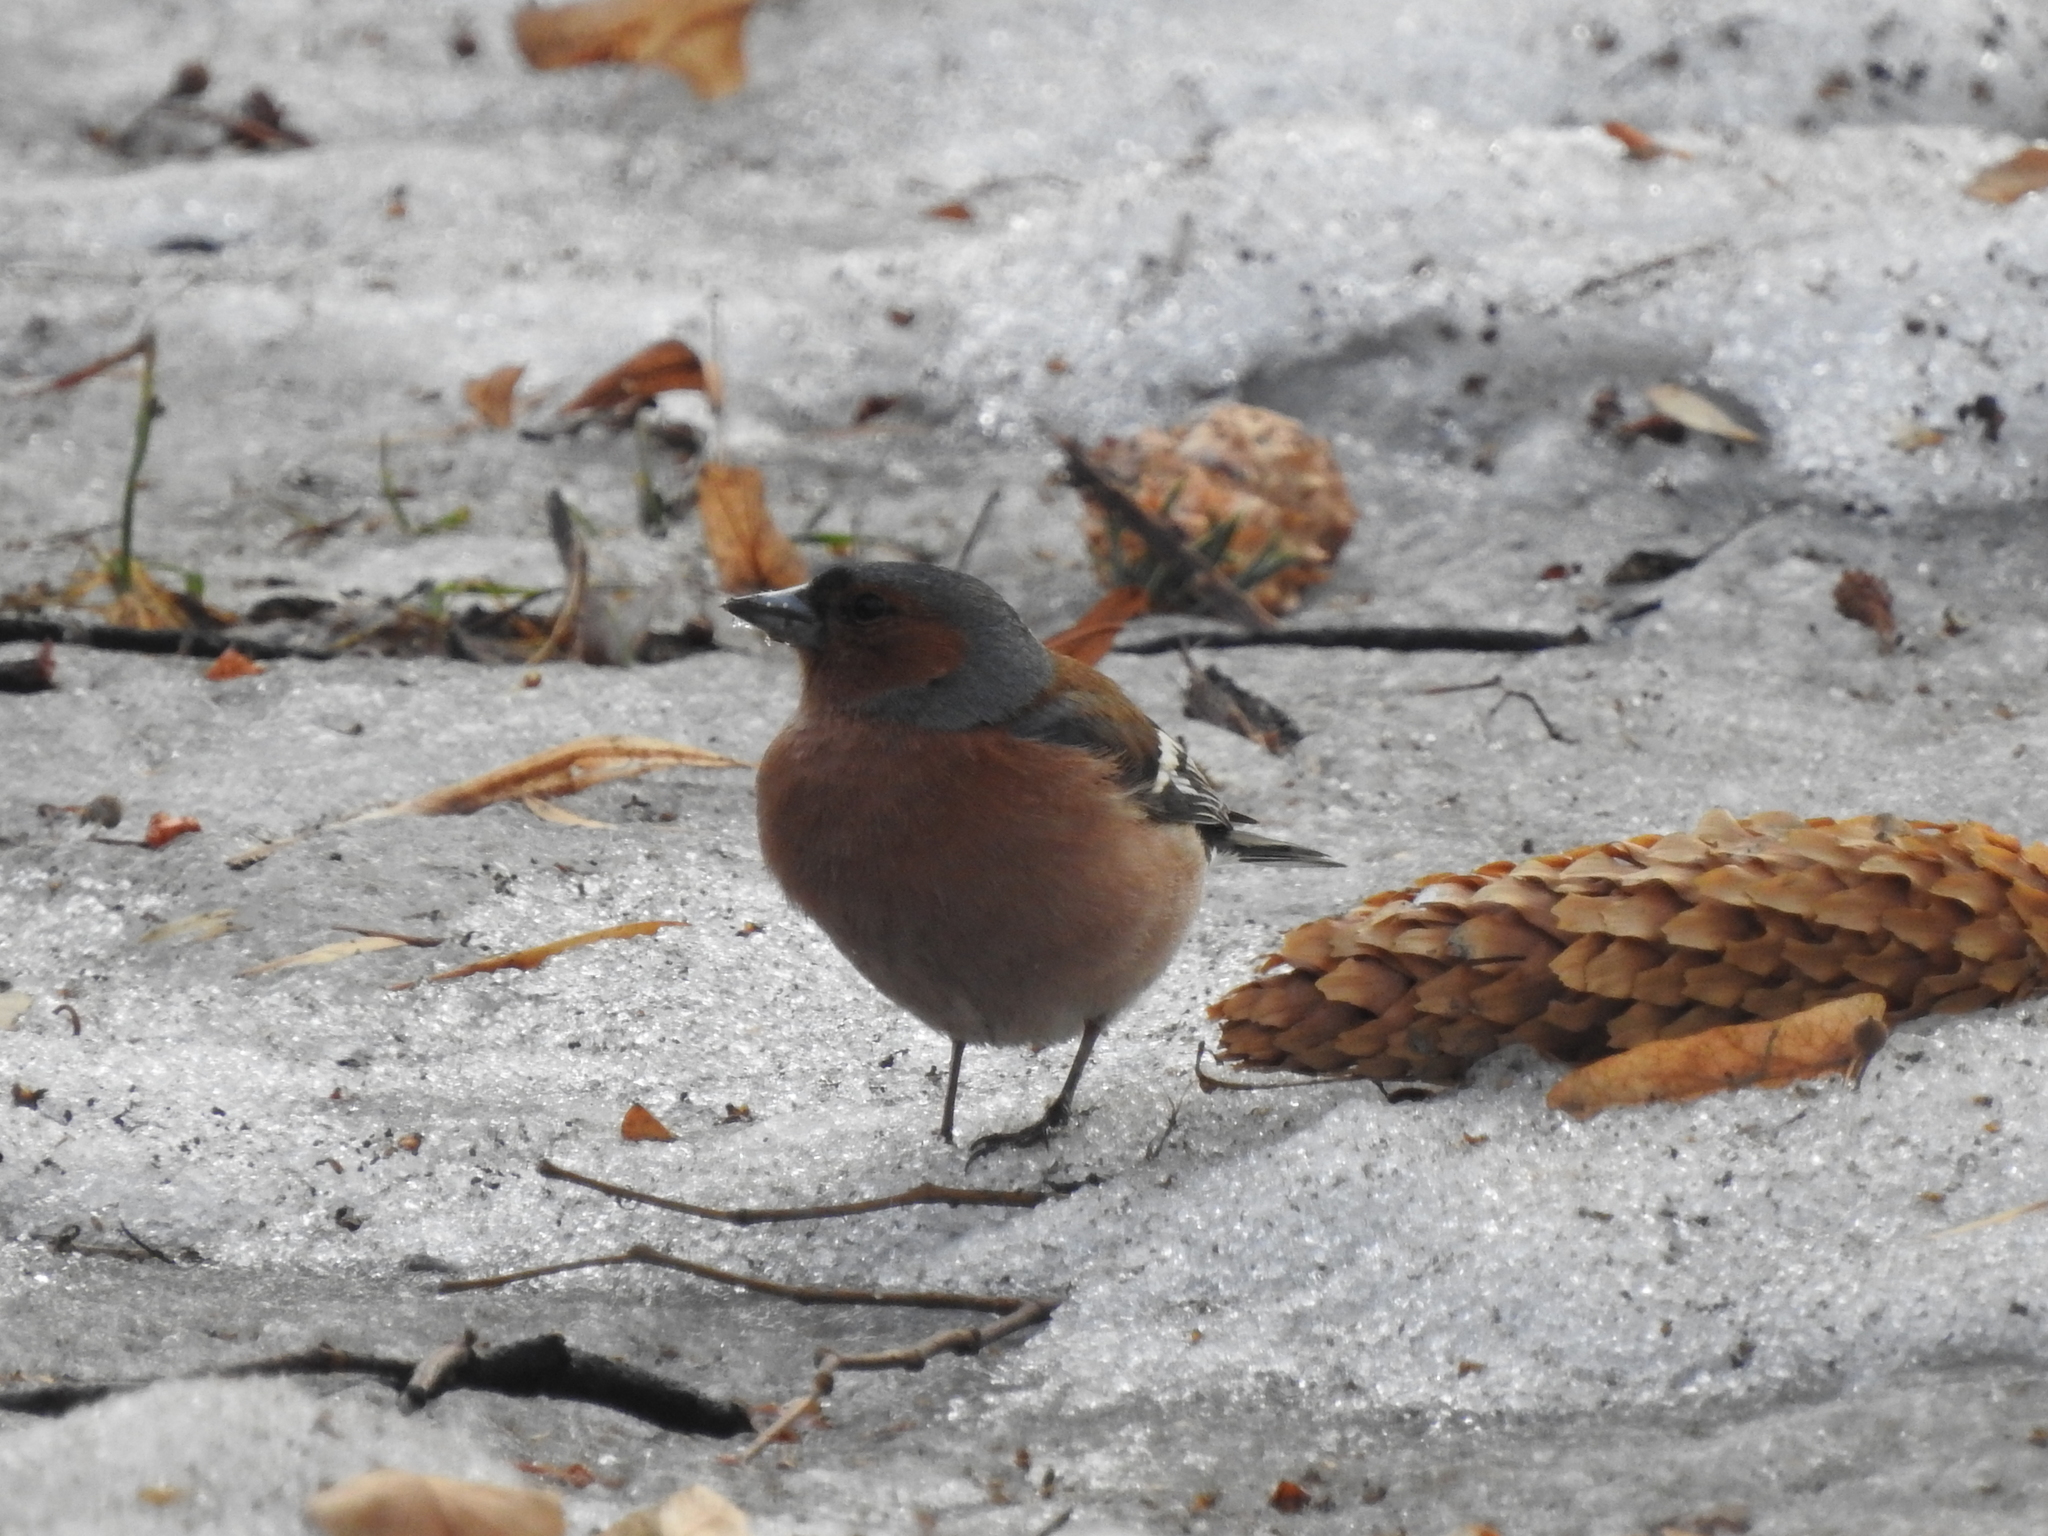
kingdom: Animalia
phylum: Chordata
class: Aves
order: Passeriformes
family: Fringillidae
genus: Fringilla
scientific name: Fringilla coelebs
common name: Common chaffinch
